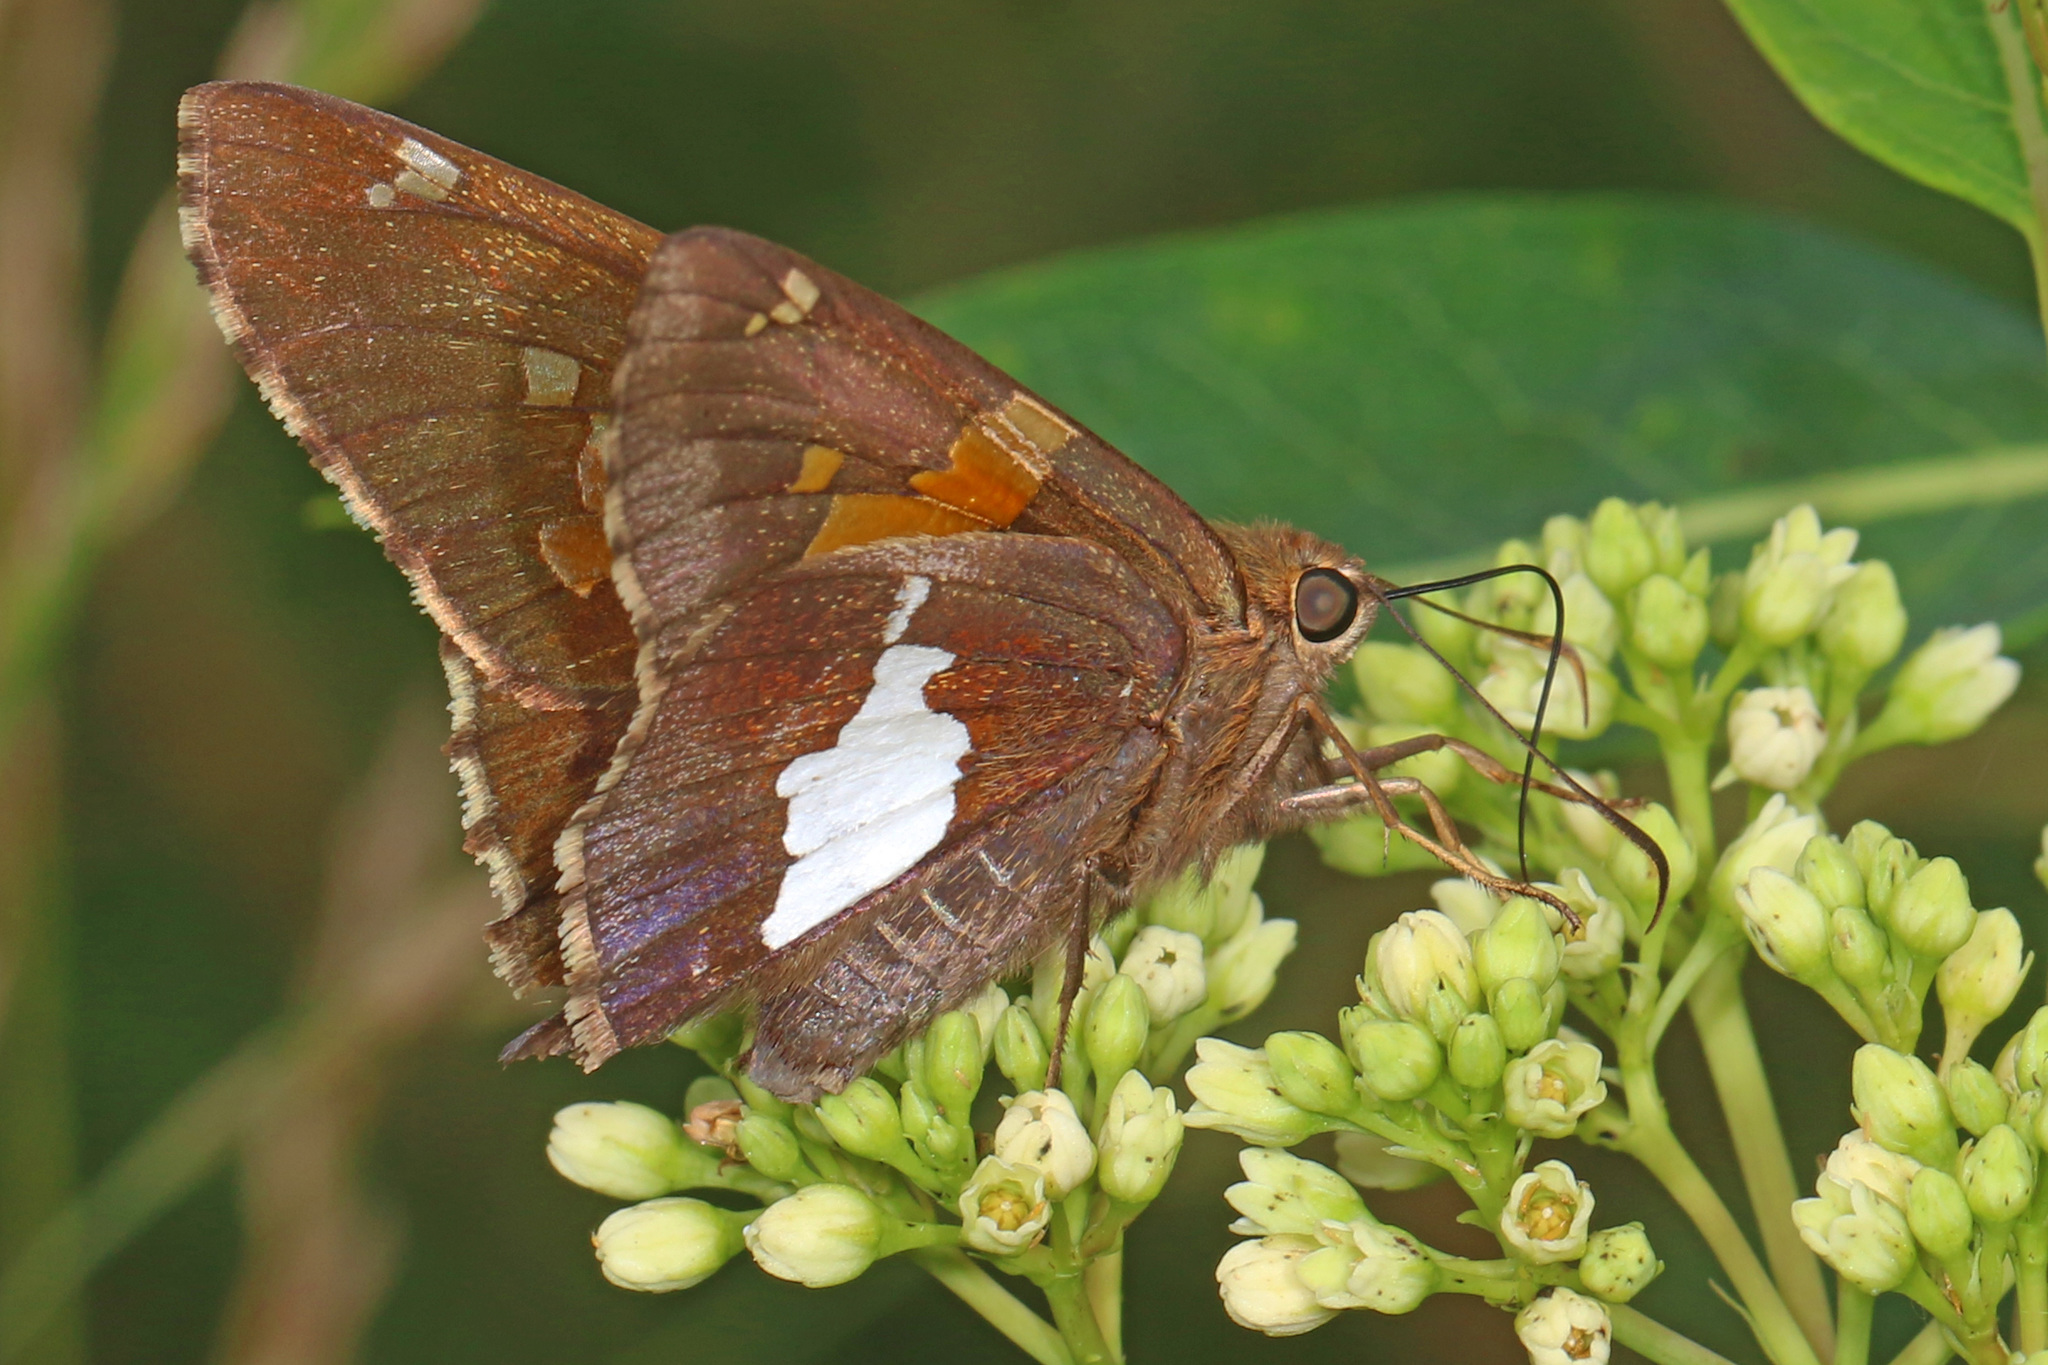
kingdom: Animalia
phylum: Arthropoda
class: Insecta
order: Lepidoptera
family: Hesperiidae
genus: Epargyreus
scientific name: Epargyreus clarus
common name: Silver-spotted skipper
